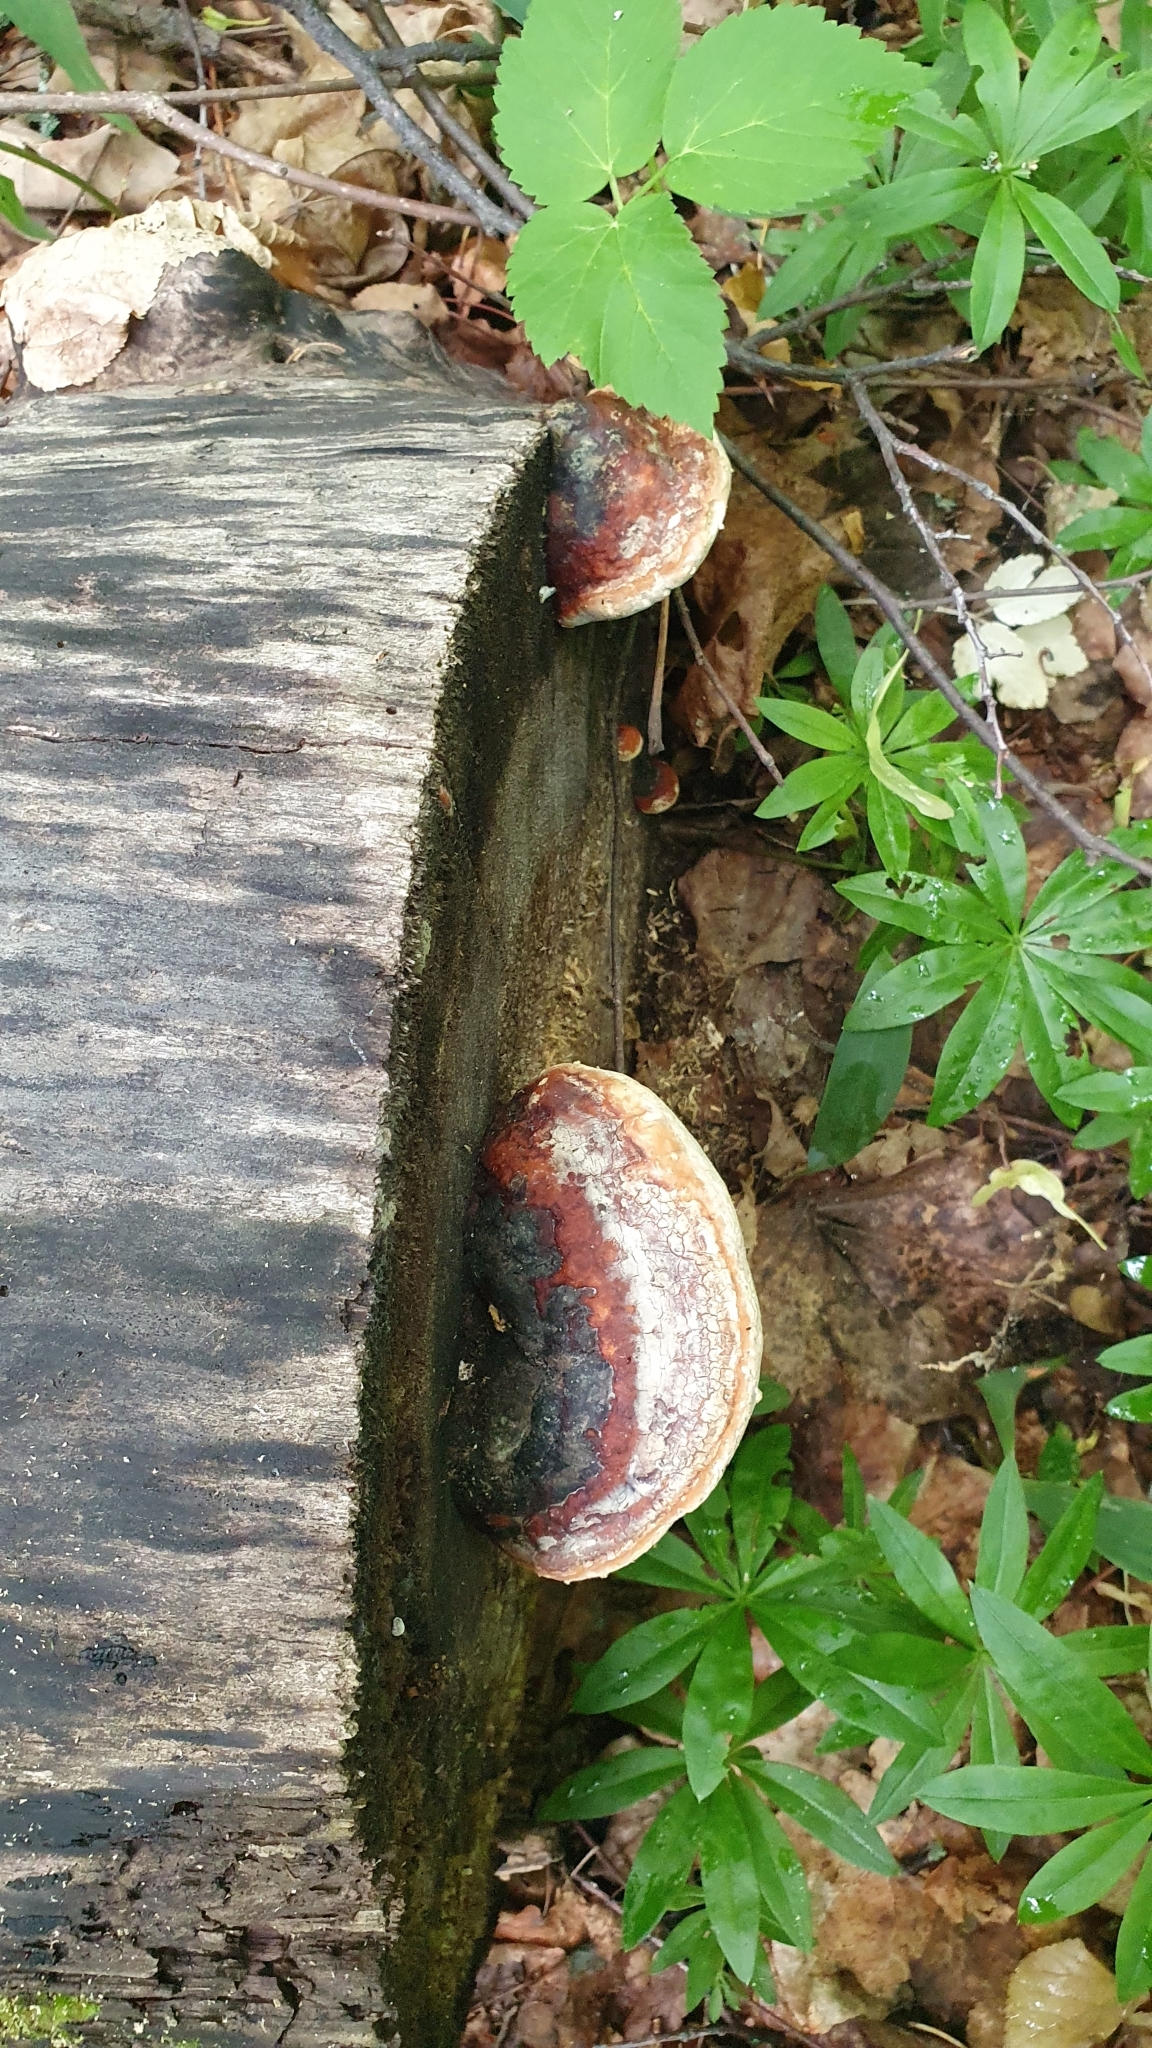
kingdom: Fungi
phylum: Basidiomycota
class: Agaricomycetes
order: Polyporales
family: Fomitopsidaceae
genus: Fomitopsis
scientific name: Fomitopsis pinicola
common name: Red-belted bracket
